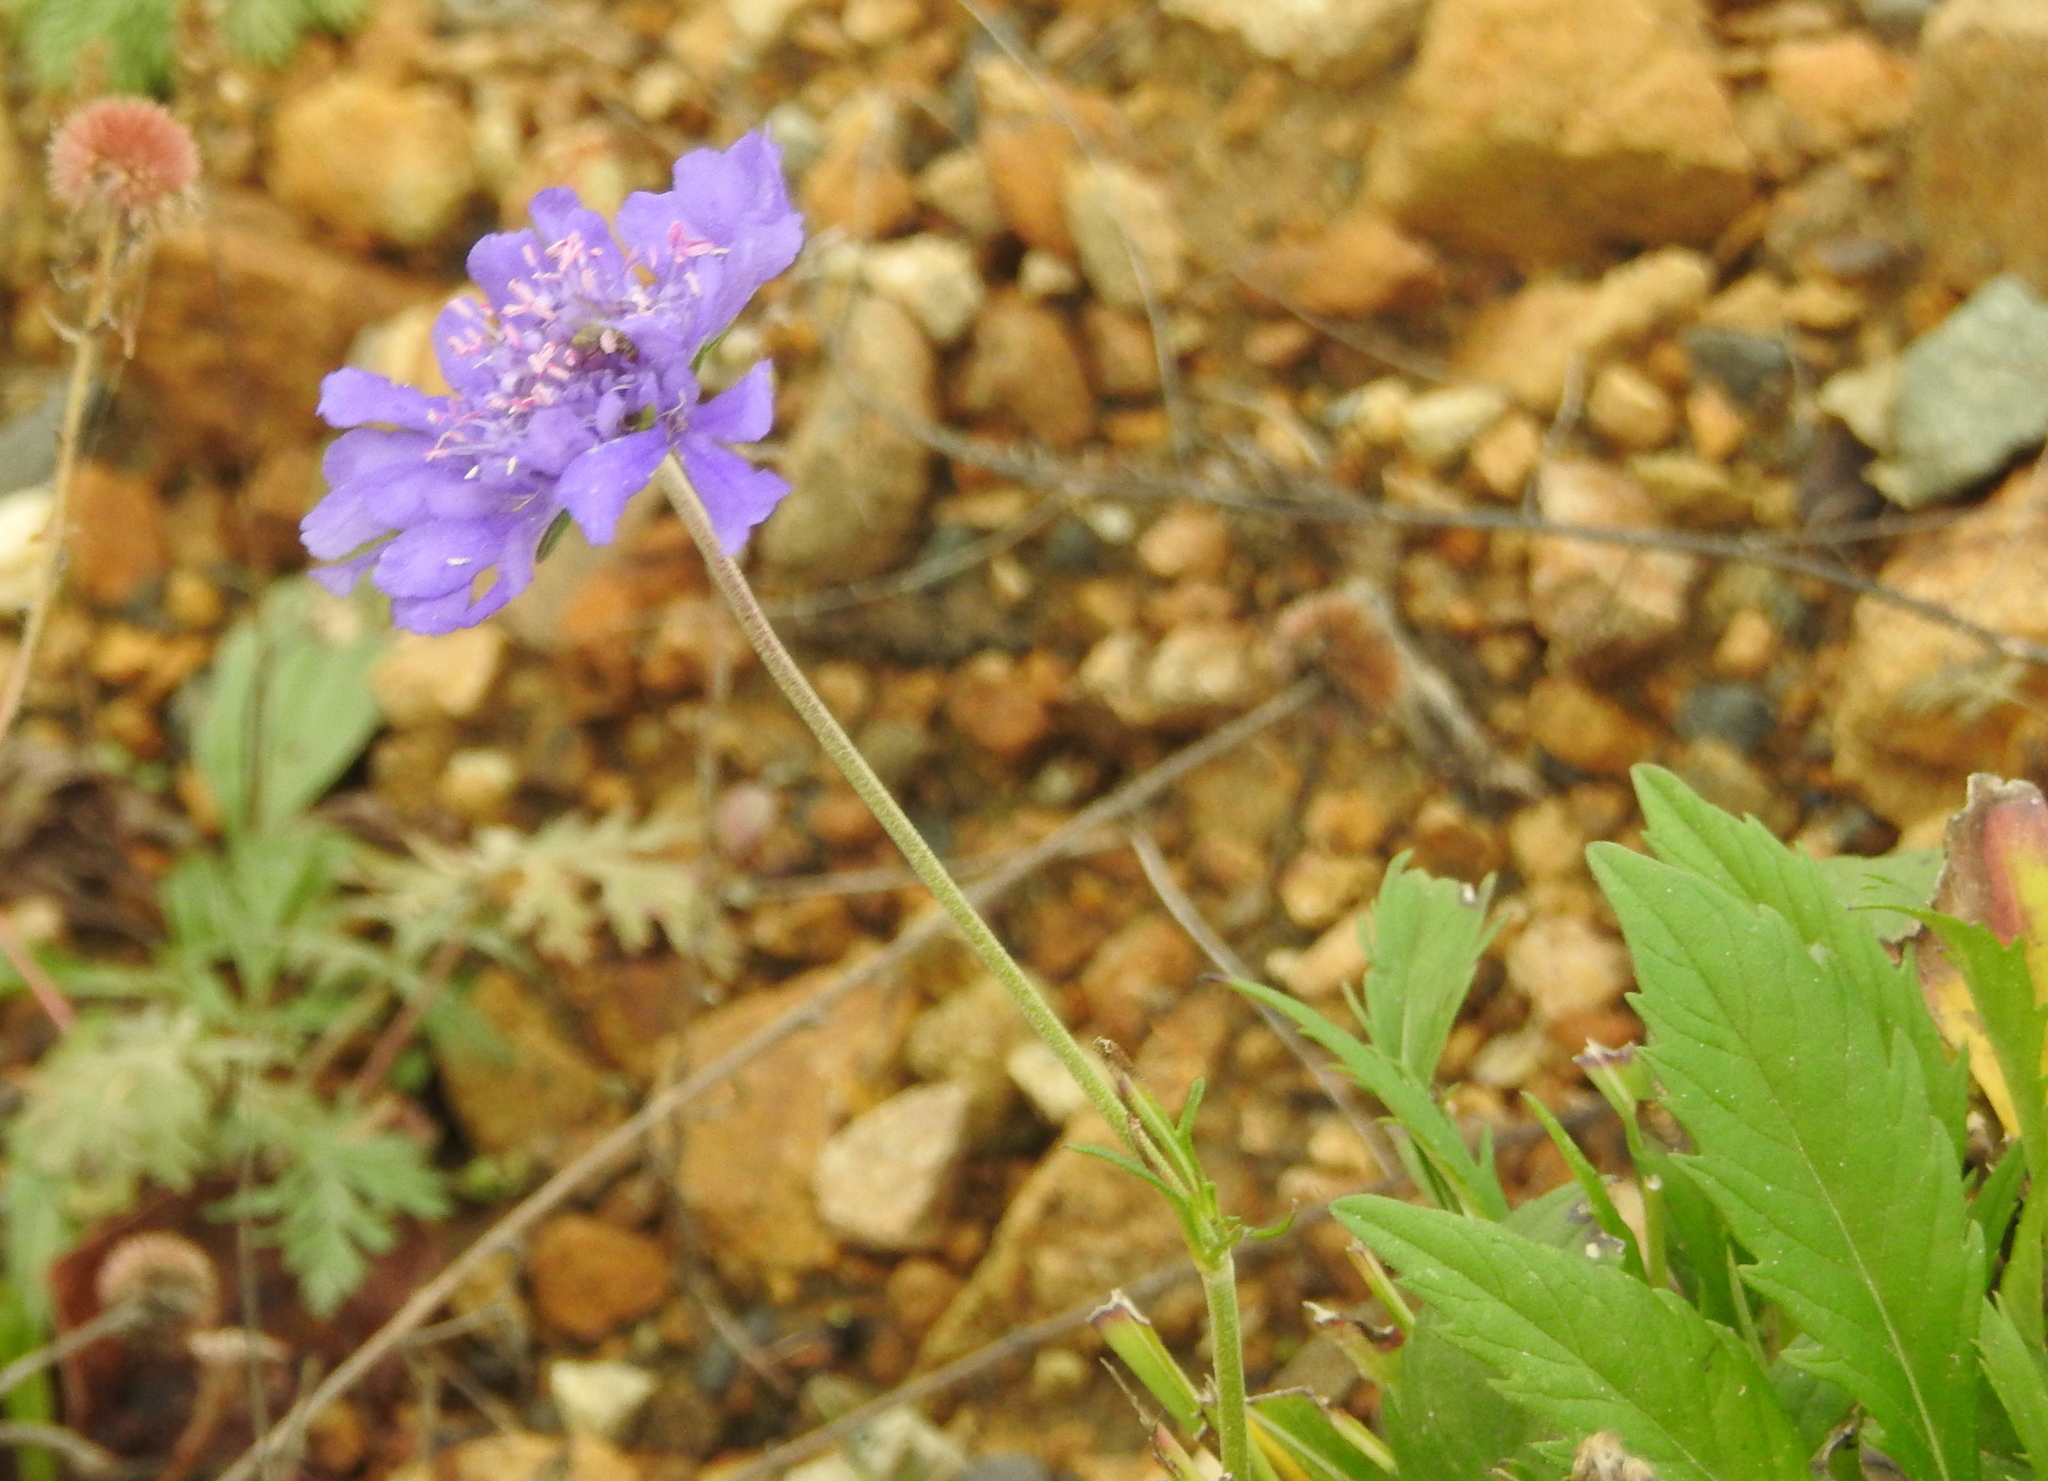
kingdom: Plantae
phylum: Tracheophyta
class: Magnoliopsida
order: Dipsacales
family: Caprifoliaceae
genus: Scabiosa
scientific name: Scabiosa comosa
